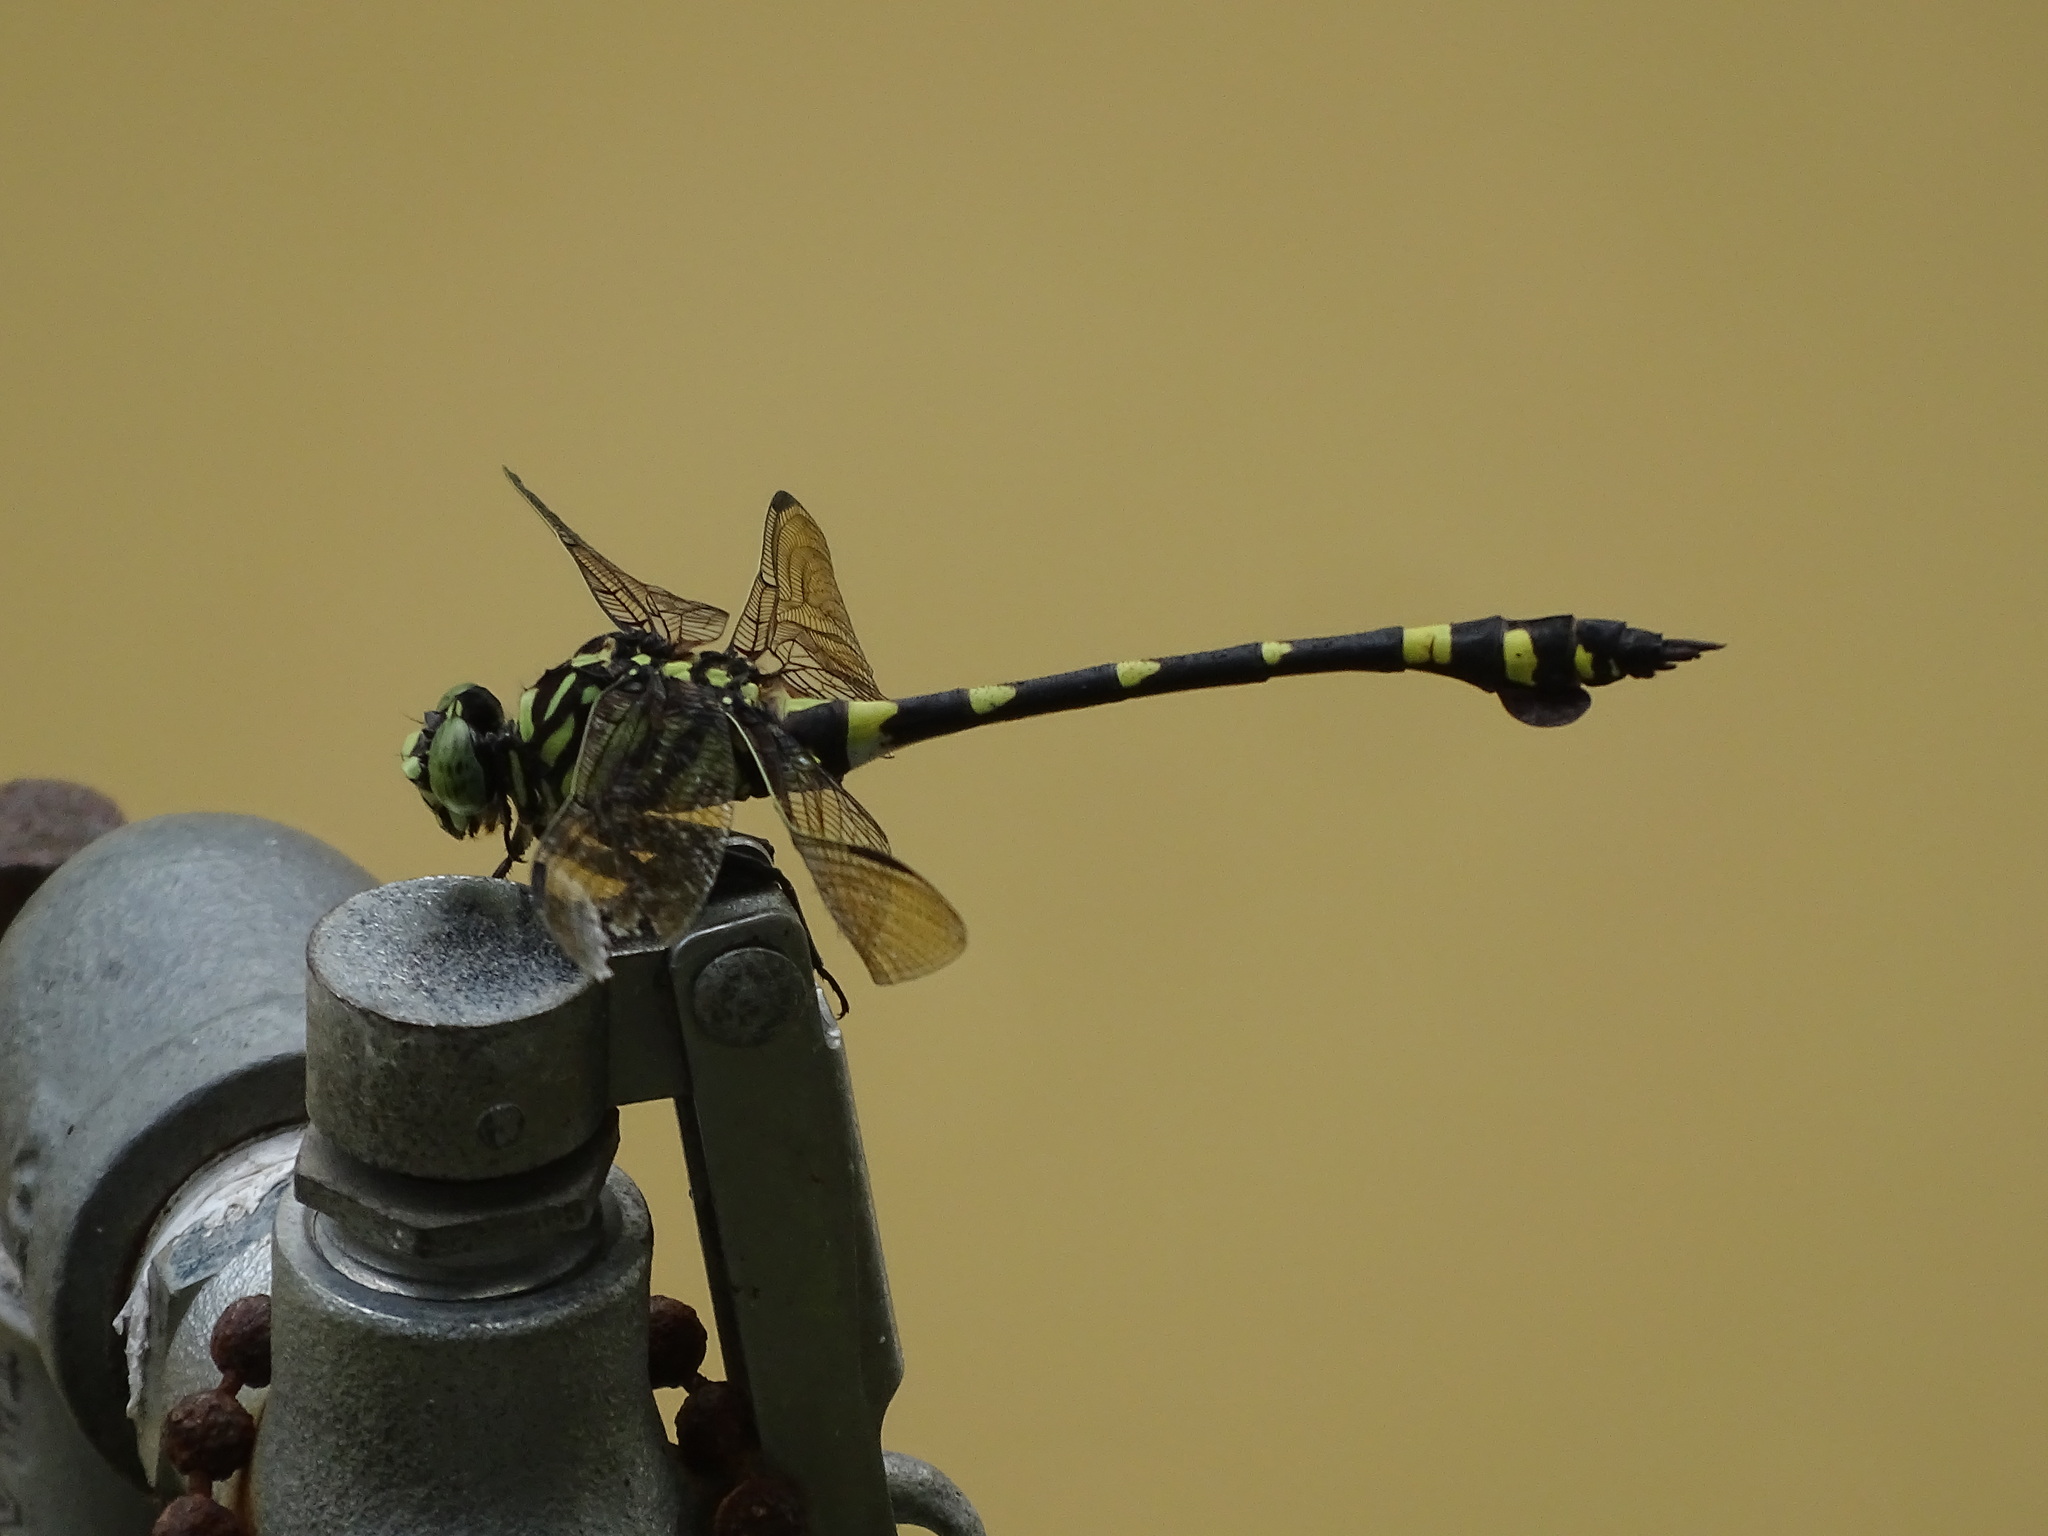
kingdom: Animalia
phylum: Arthropoda
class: Insecta
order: Odonata
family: Gomphidae
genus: Ictinogomphus
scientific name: Ictinogomphus rapax
